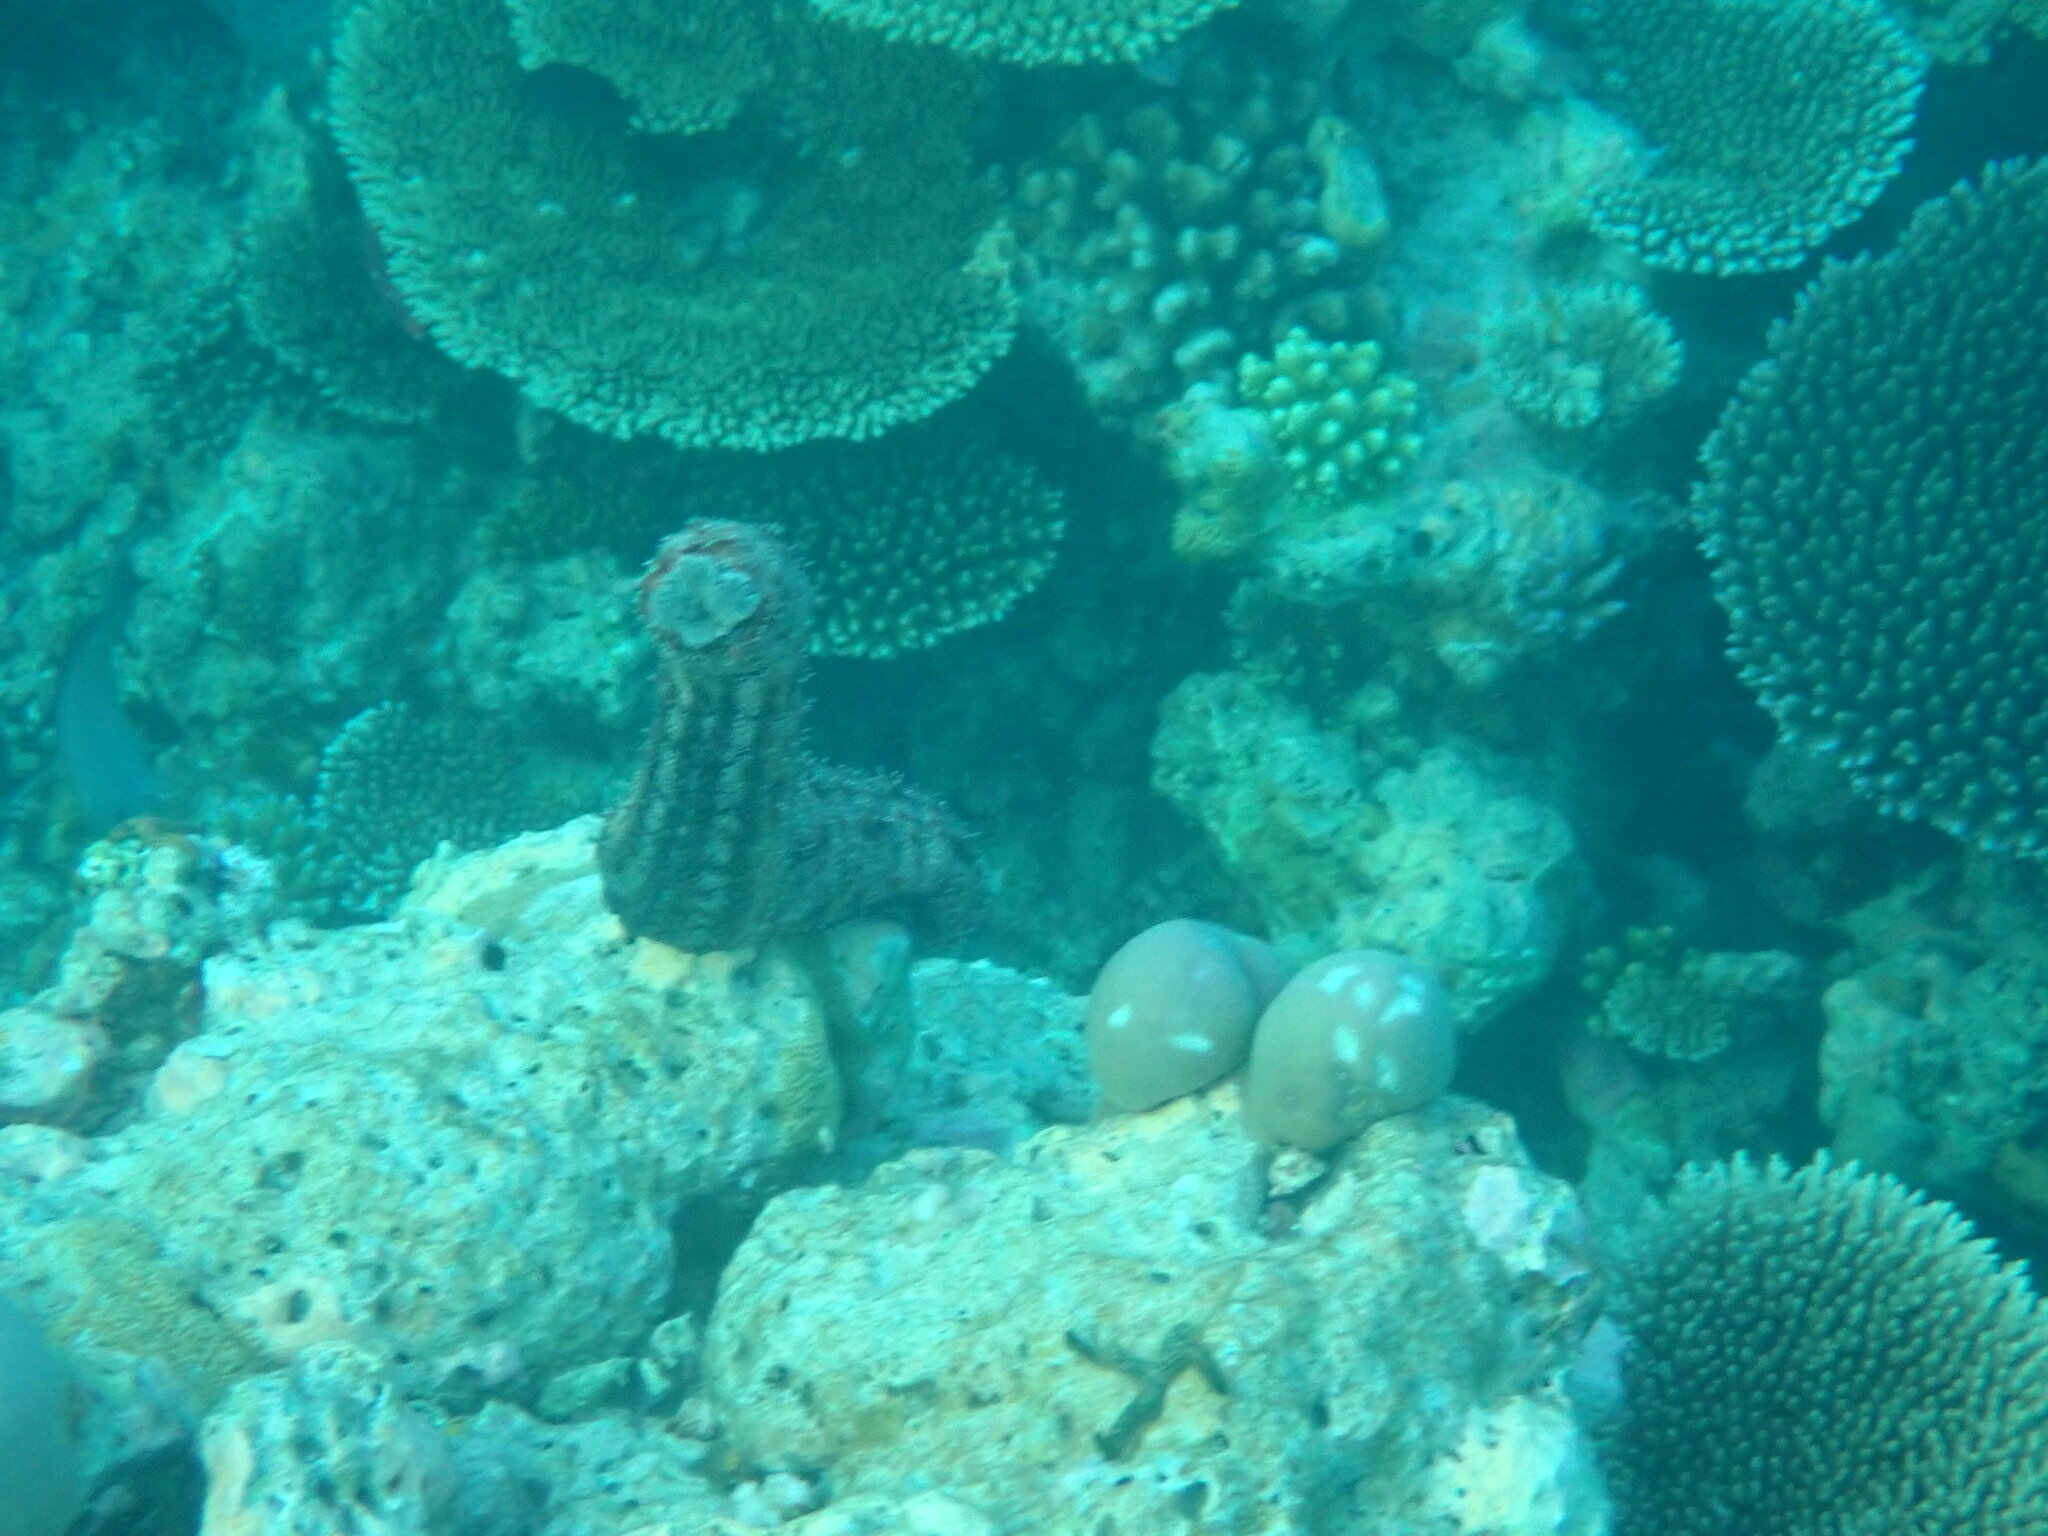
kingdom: Animalia
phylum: Echinodermata
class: Holothuroidea
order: Holothuriida
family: Holothuriidae
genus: Pearsonothuria
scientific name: Pearsonothuria graeffei
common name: Blackspotted sea cucumber
